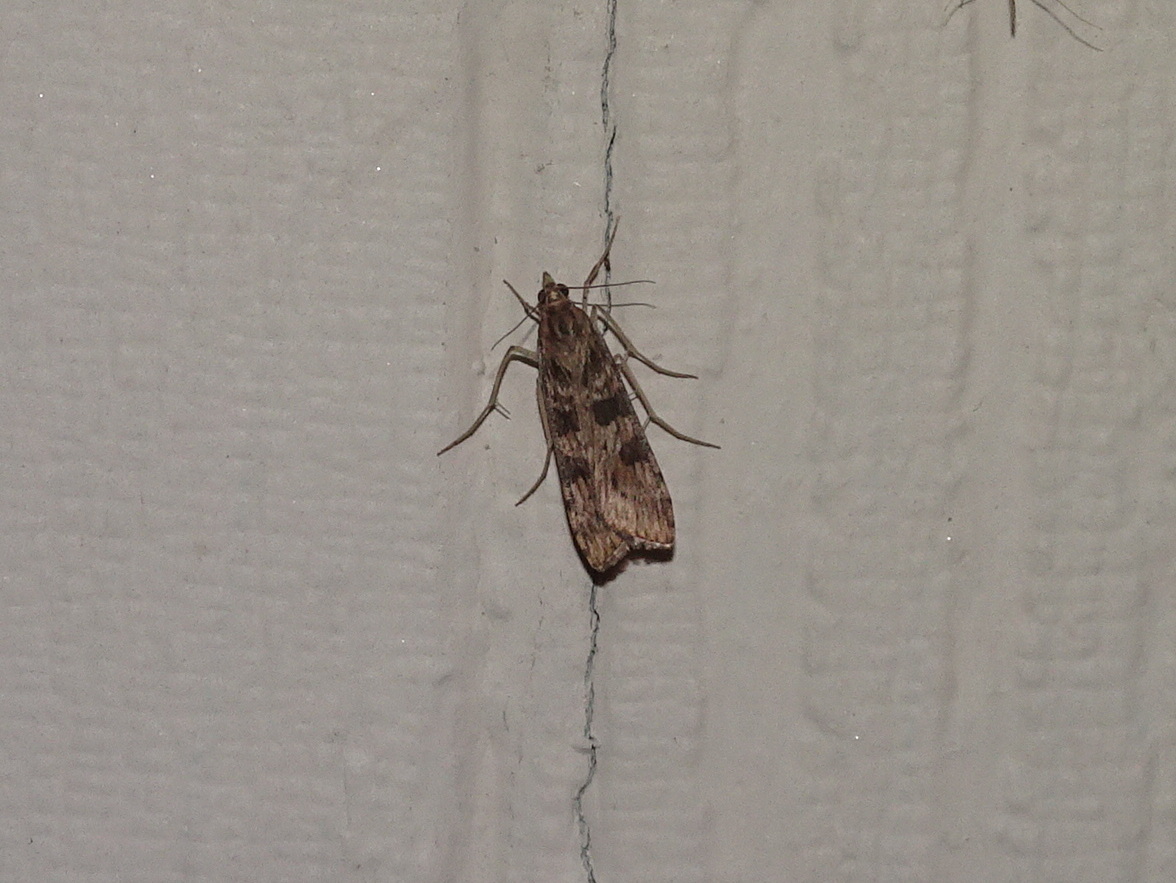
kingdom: Animalia
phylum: Arthropoda
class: Insecta
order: Lepidoptera
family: Crambidae
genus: Nomophila
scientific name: Nomophila nearctica
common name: American rush veneer
